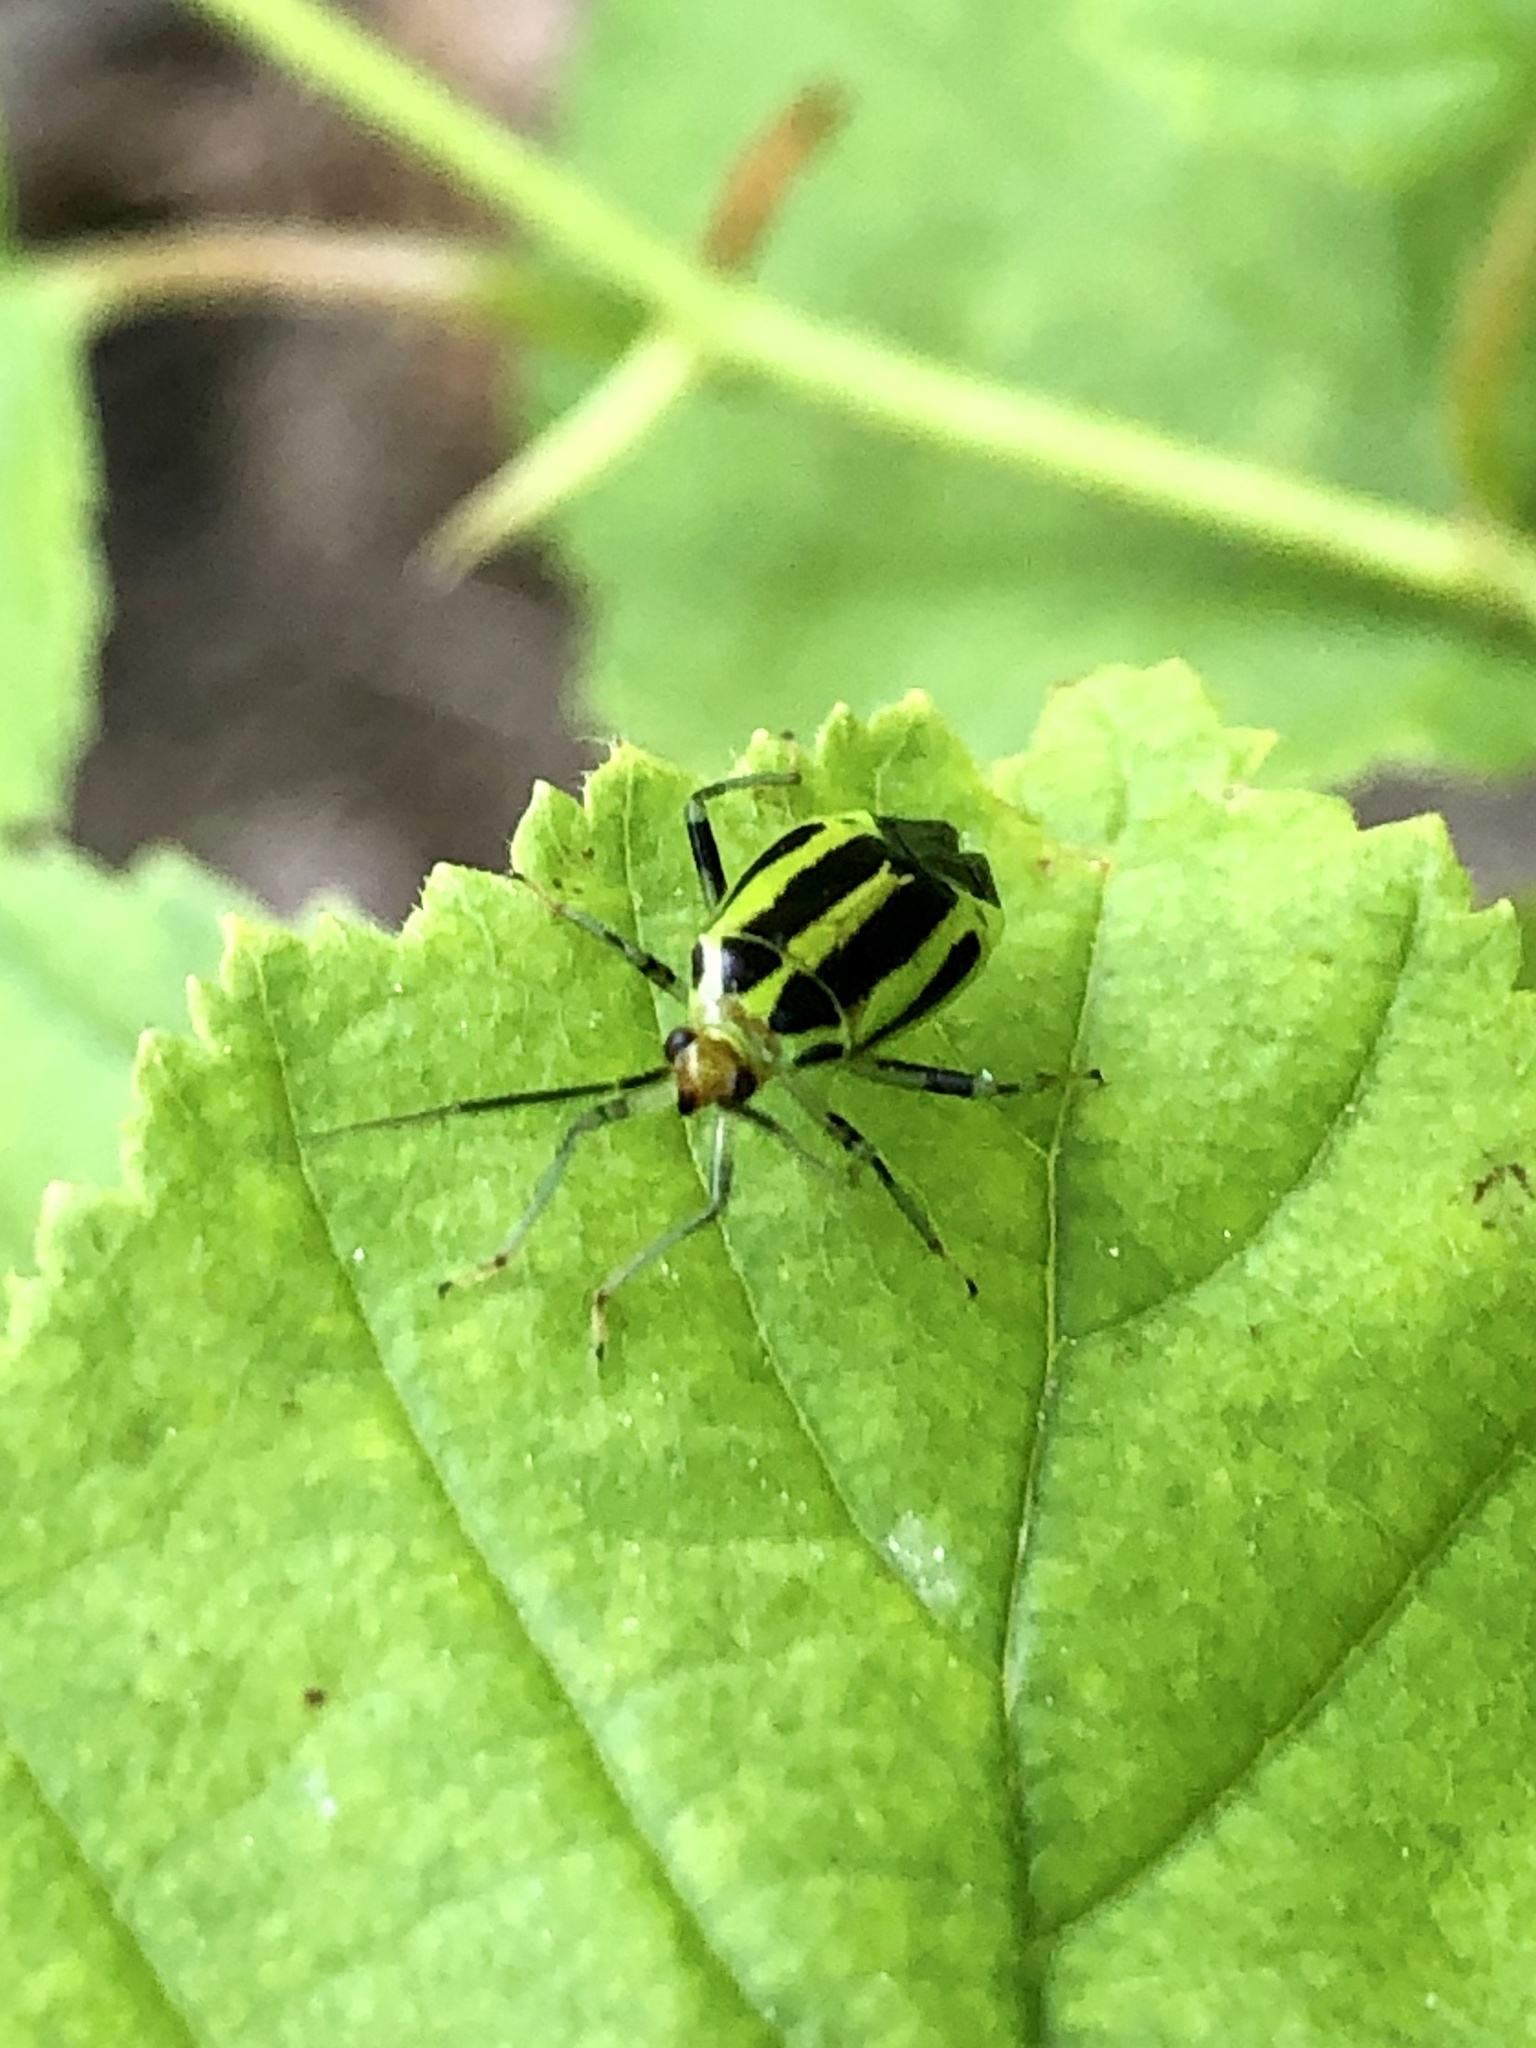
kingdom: Animalia
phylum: Arthropoda
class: Insecta
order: Hemiptera
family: Miridae
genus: Poecilocapsus
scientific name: Poecilocapsus lineatus
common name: Four-lined plant bug
